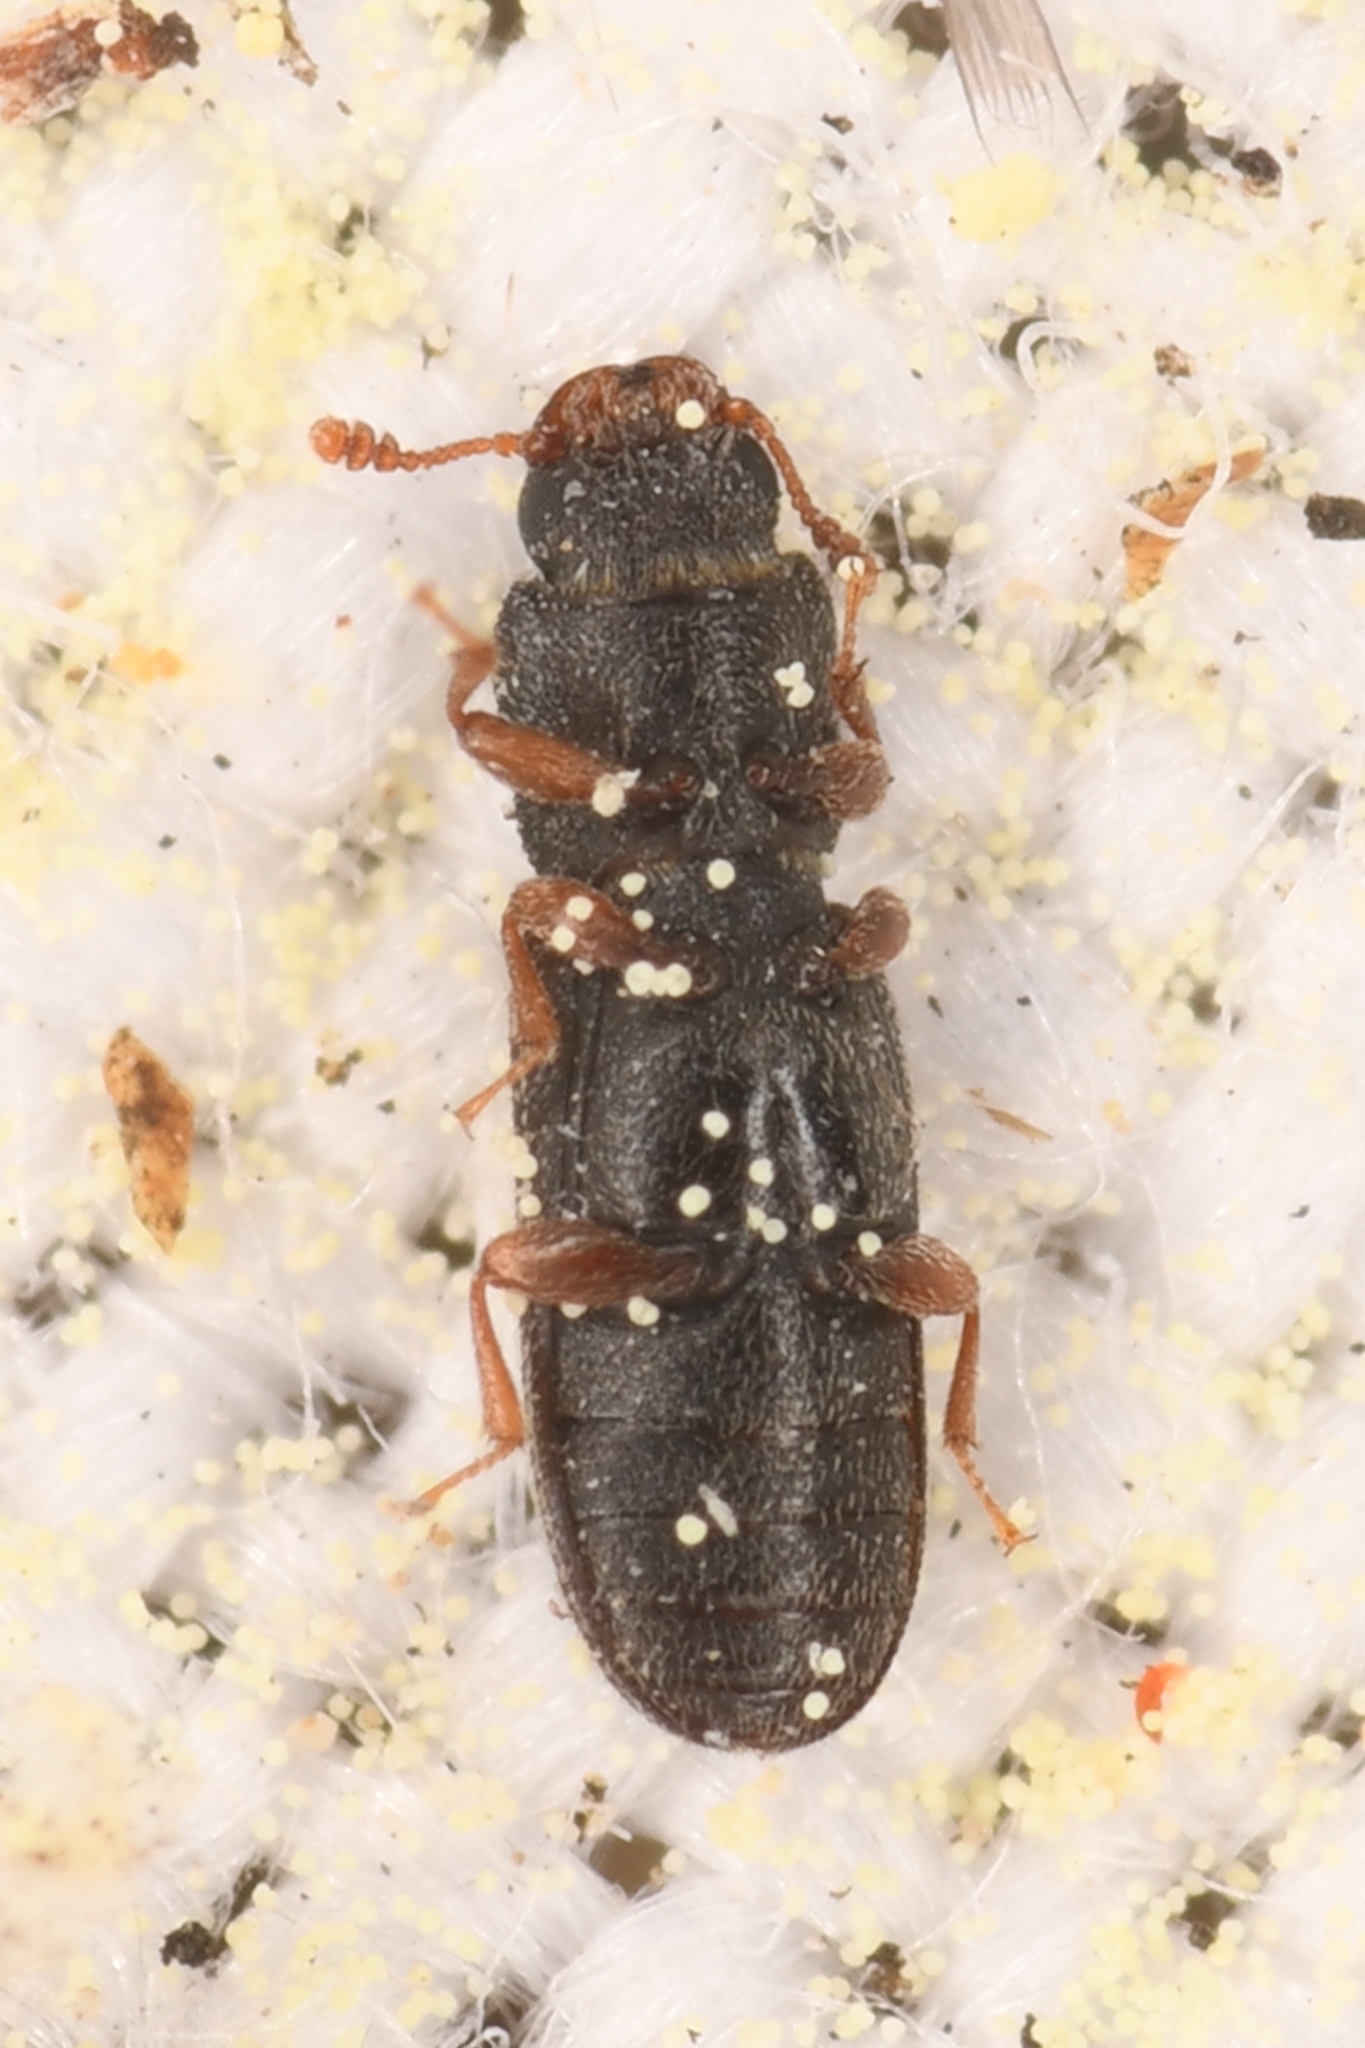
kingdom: Animalia
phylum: Arthropoda
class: Insecta
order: Coleoptera
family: Zopheridae
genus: Lasconotus
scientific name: Lasconotus subcostulatus
